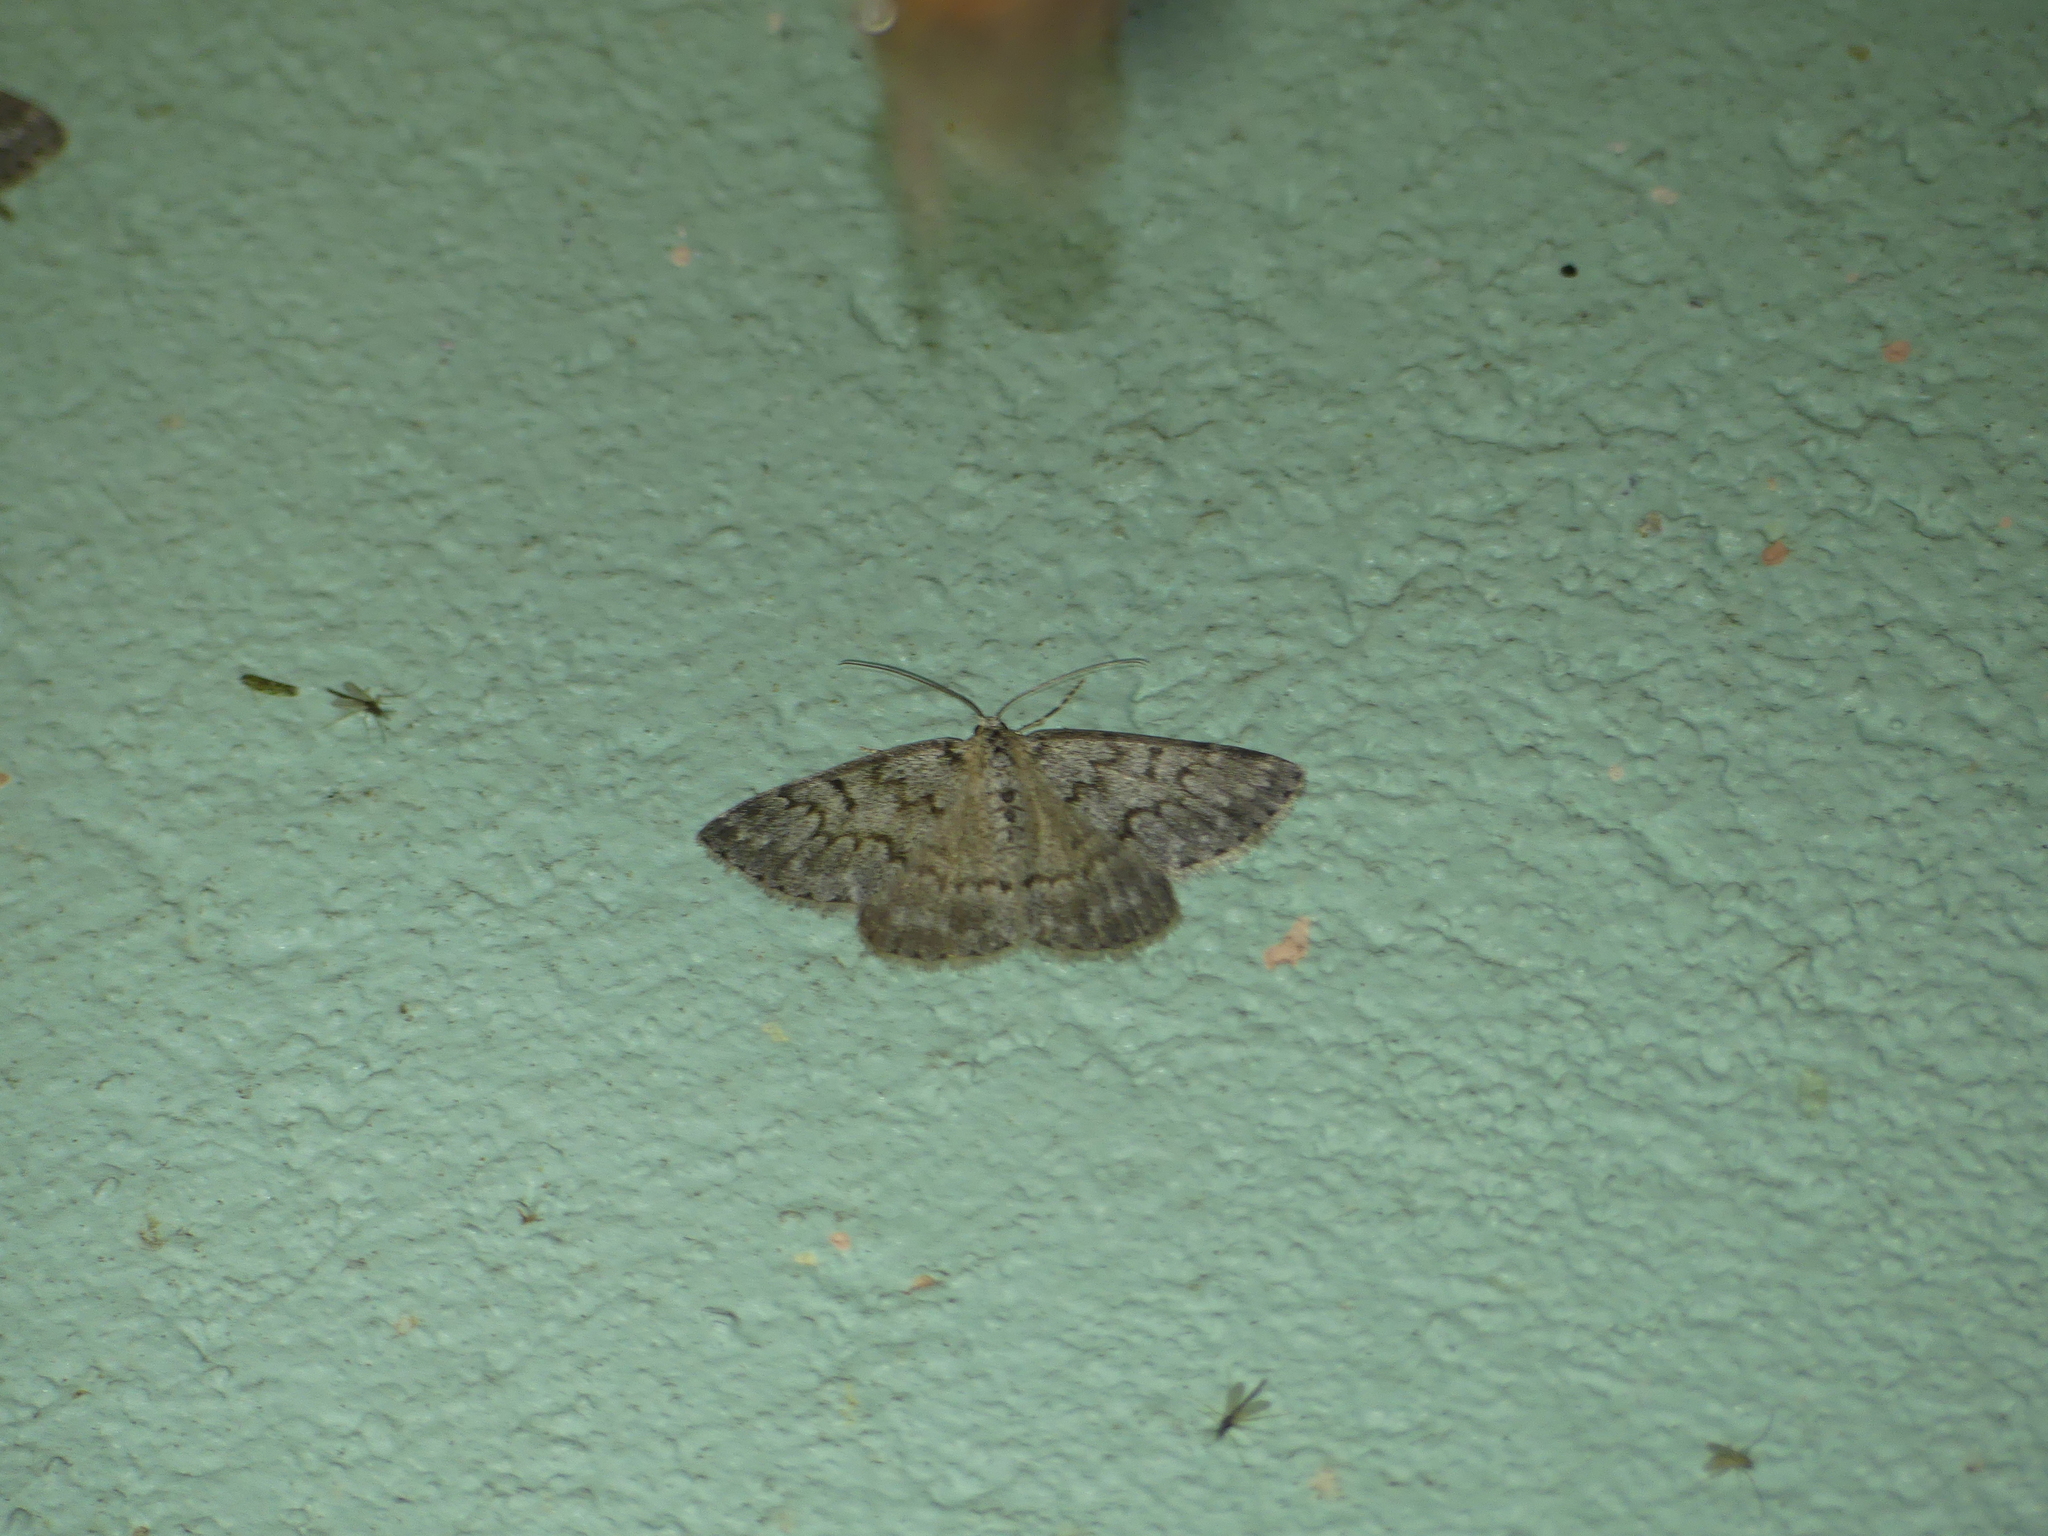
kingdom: Animalia
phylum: Arthropoda
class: Insecta
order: Lepidoptera
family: Geometridae
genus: Pseudoterpna
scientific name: Pseudoterpna corsicaria
